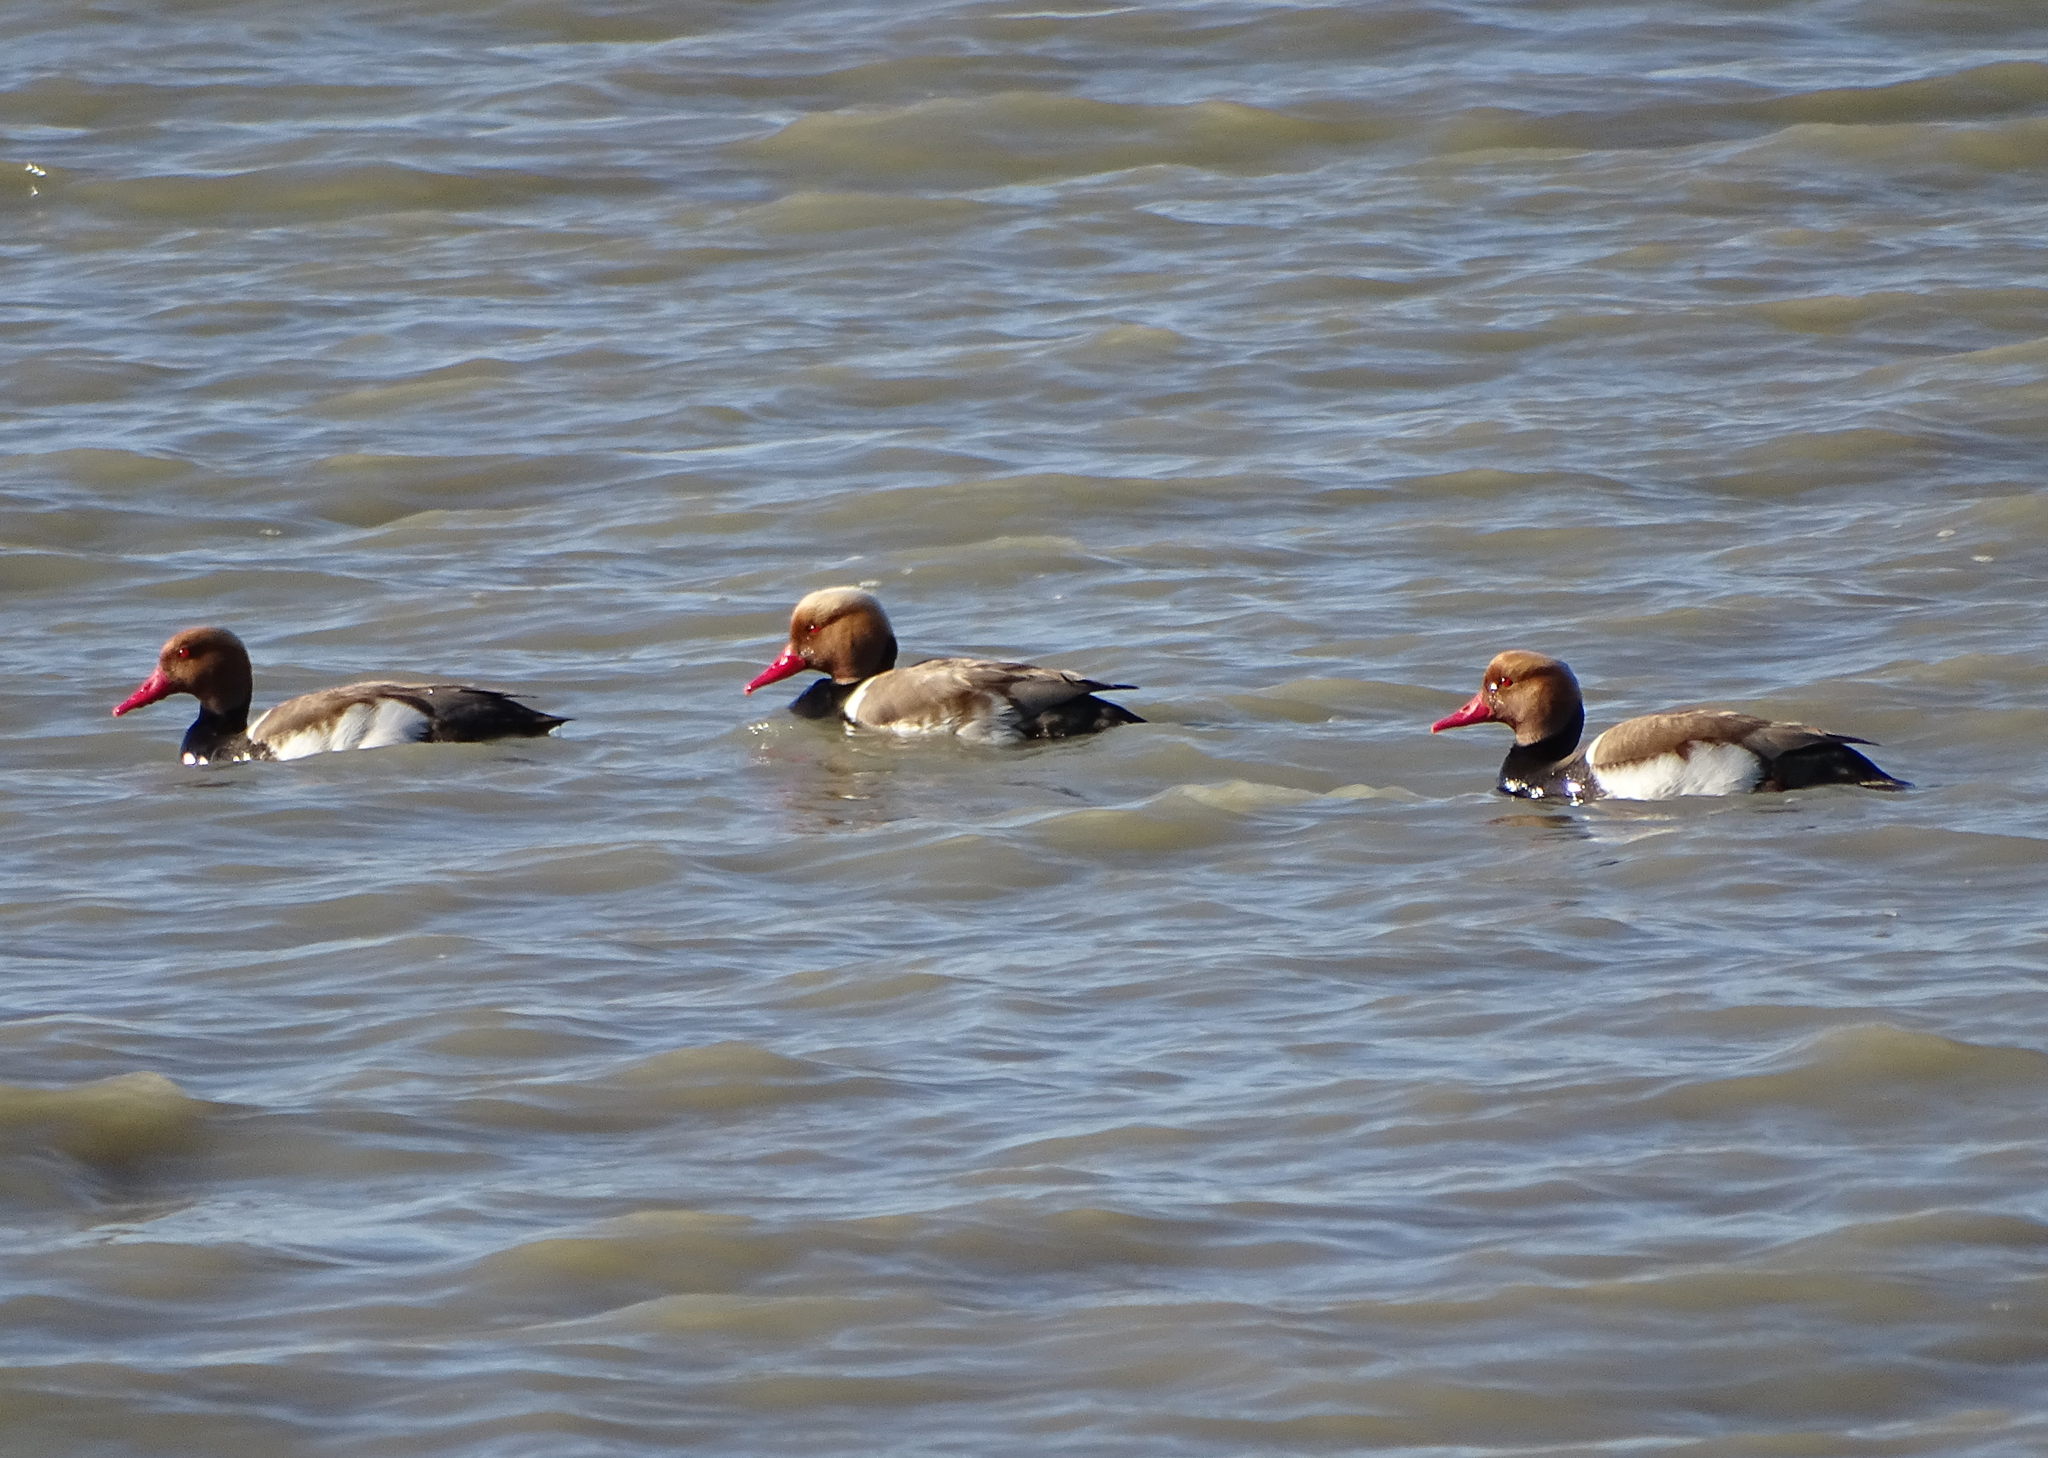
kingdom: Animalia
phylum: Chordata
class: Aves
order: Anseriformes
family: Anatidae
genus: Netta
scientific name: Netta rufina
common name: Red-crested pochard
